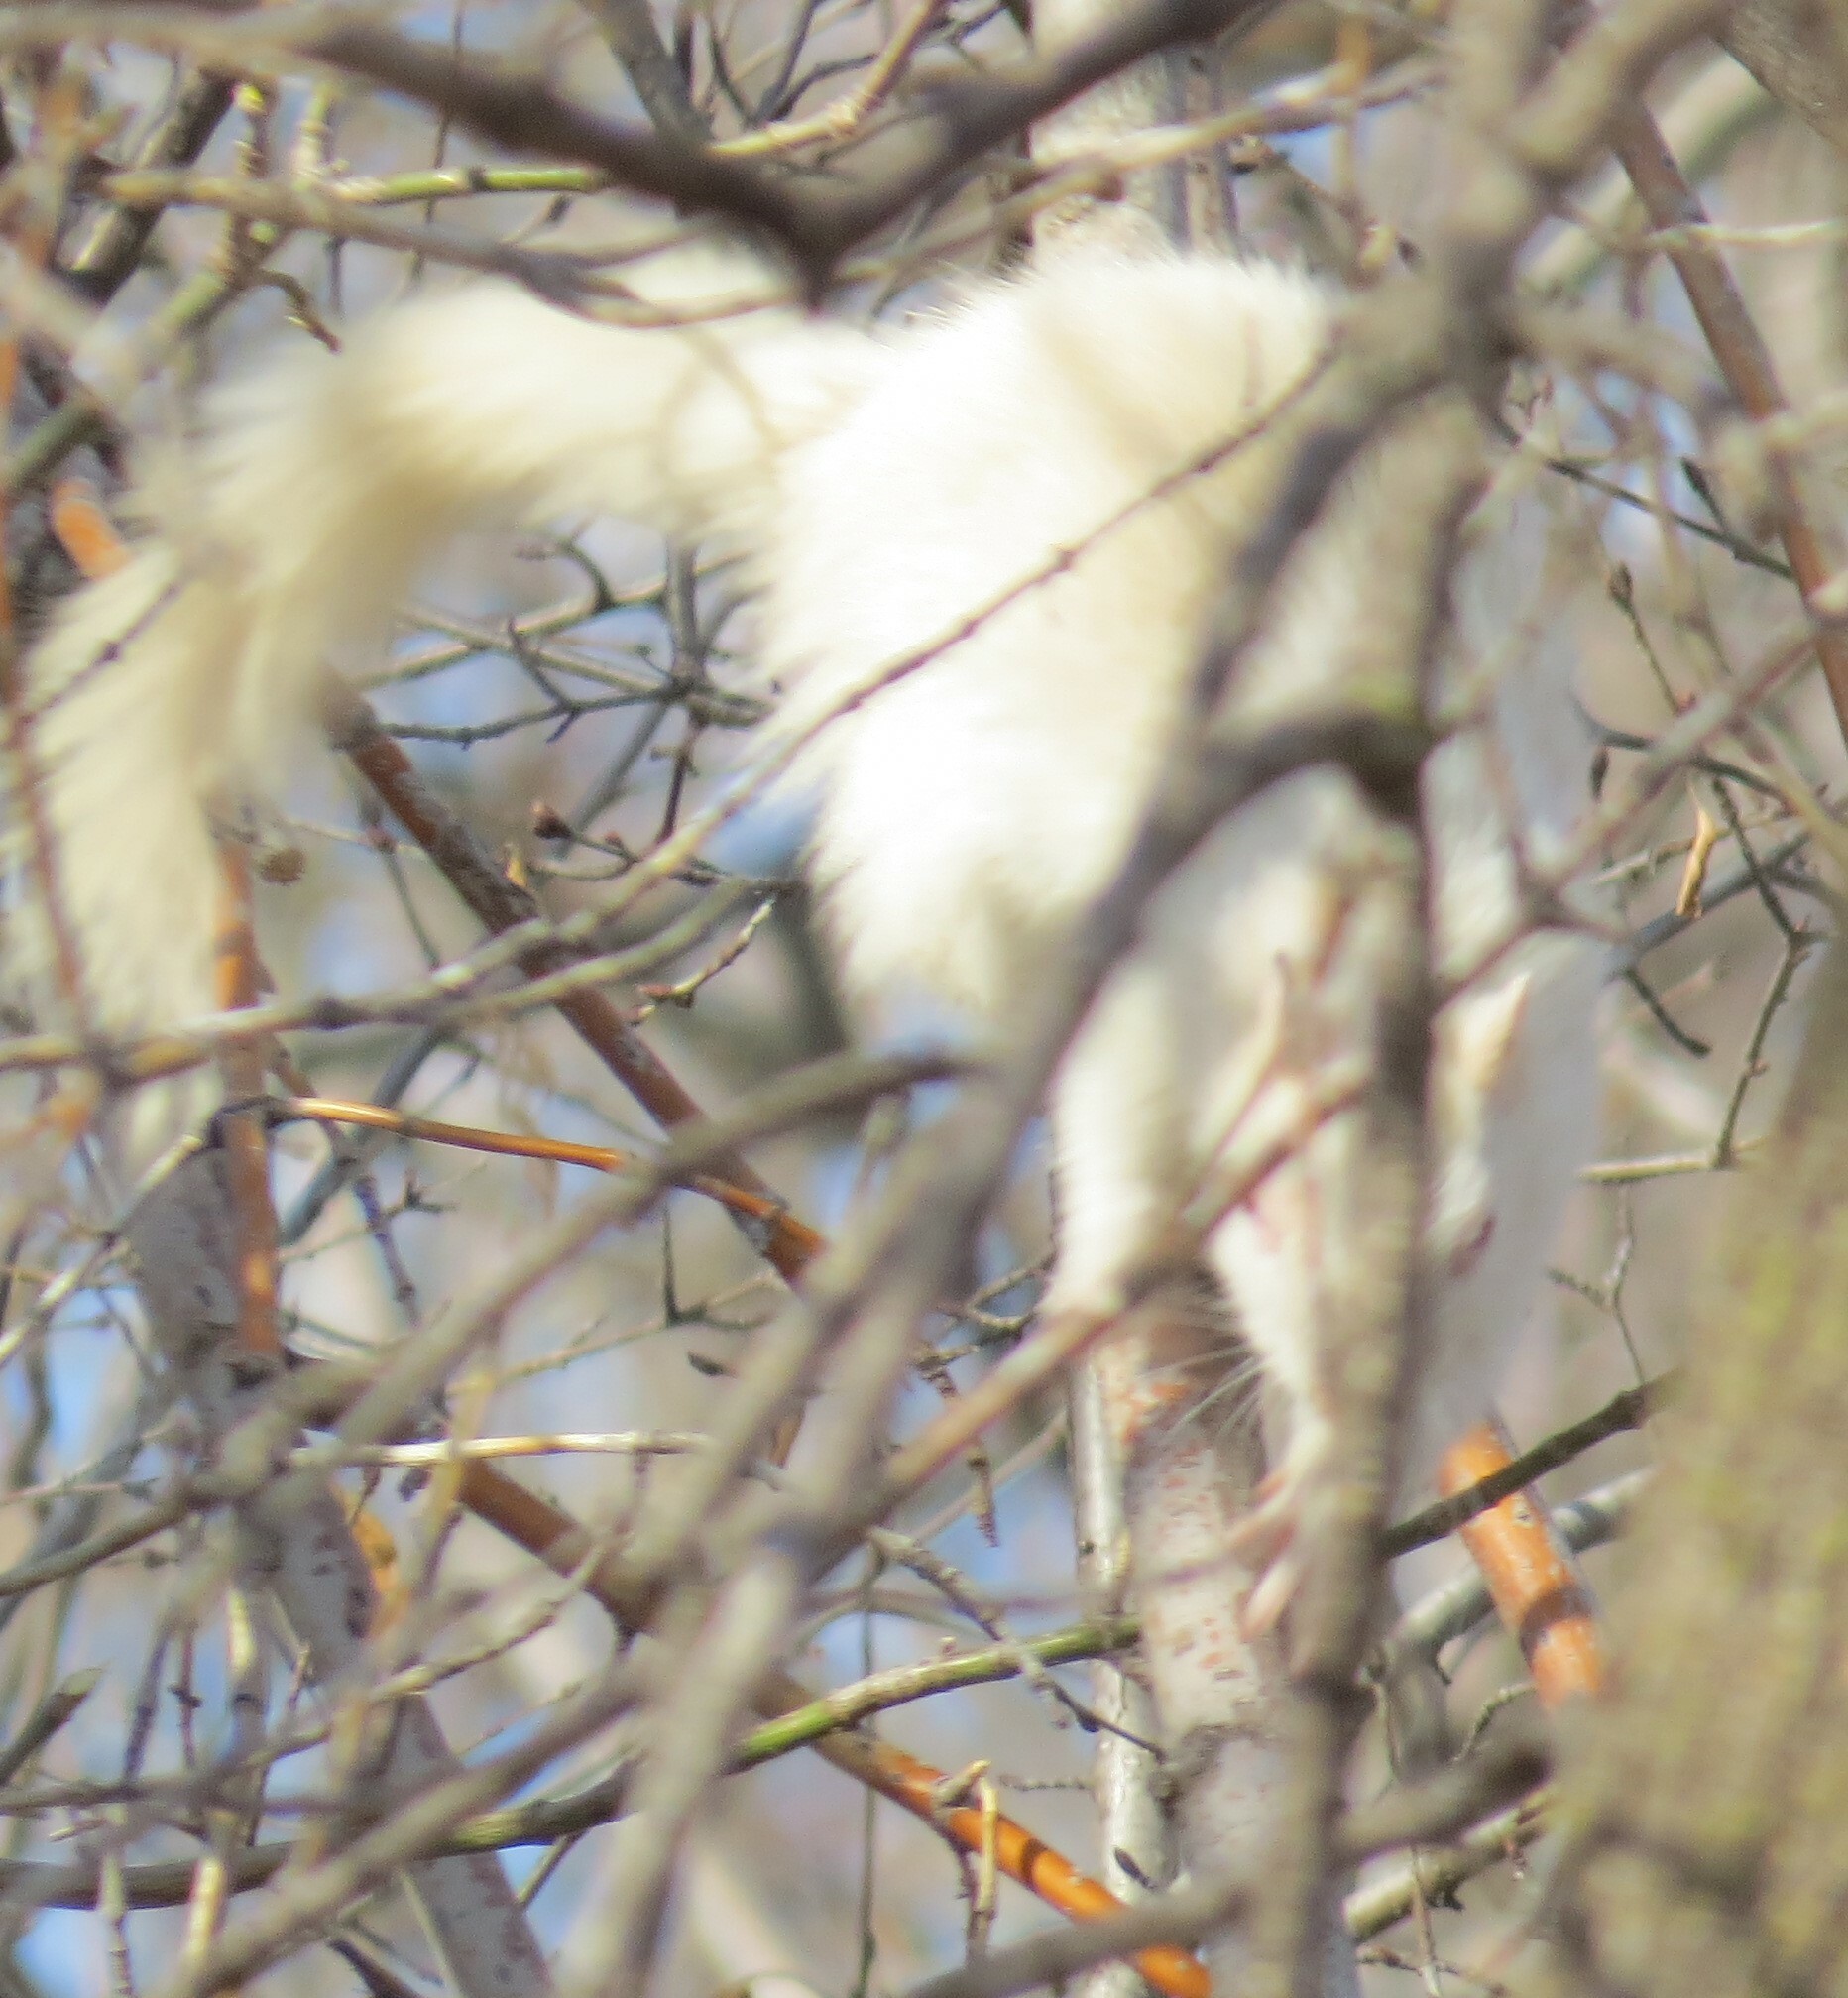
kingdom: Animalia
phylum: Chordata
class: Mammalia
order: Rodentia
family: Sciuridae
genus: Sciurus
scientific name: Sciurus carolinensis
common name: Eastern gray squirrel
